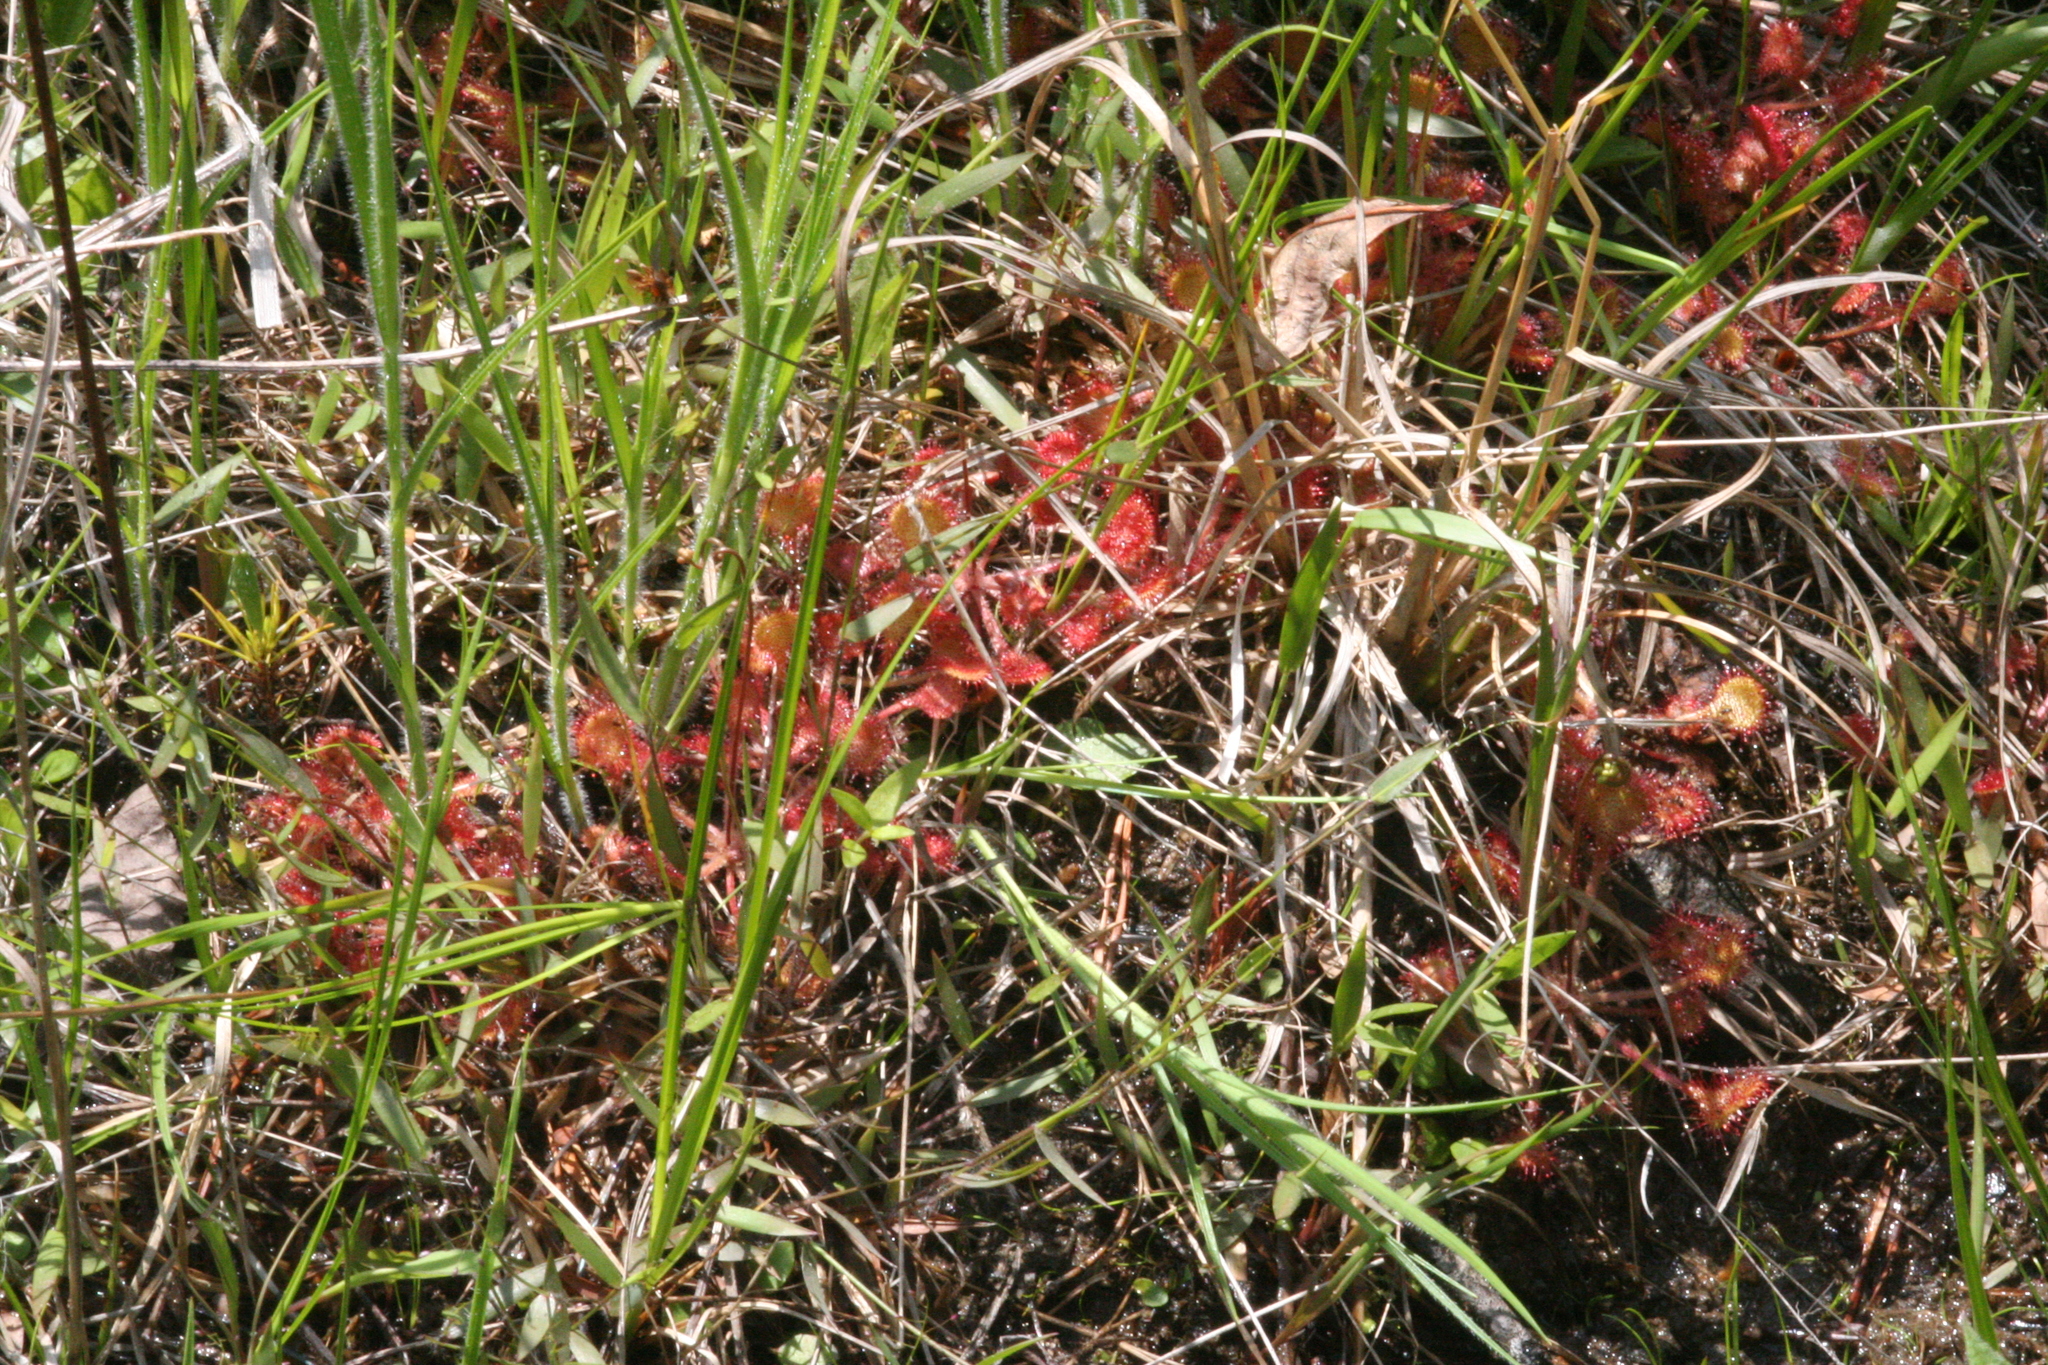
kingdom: Plantae
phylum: Tracheophyta
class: Magnoliopsida
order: Caryophyllales
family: Droseraceae
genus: Drosera
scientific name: Drosera rotundifolia
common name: Round-leaved sundew
